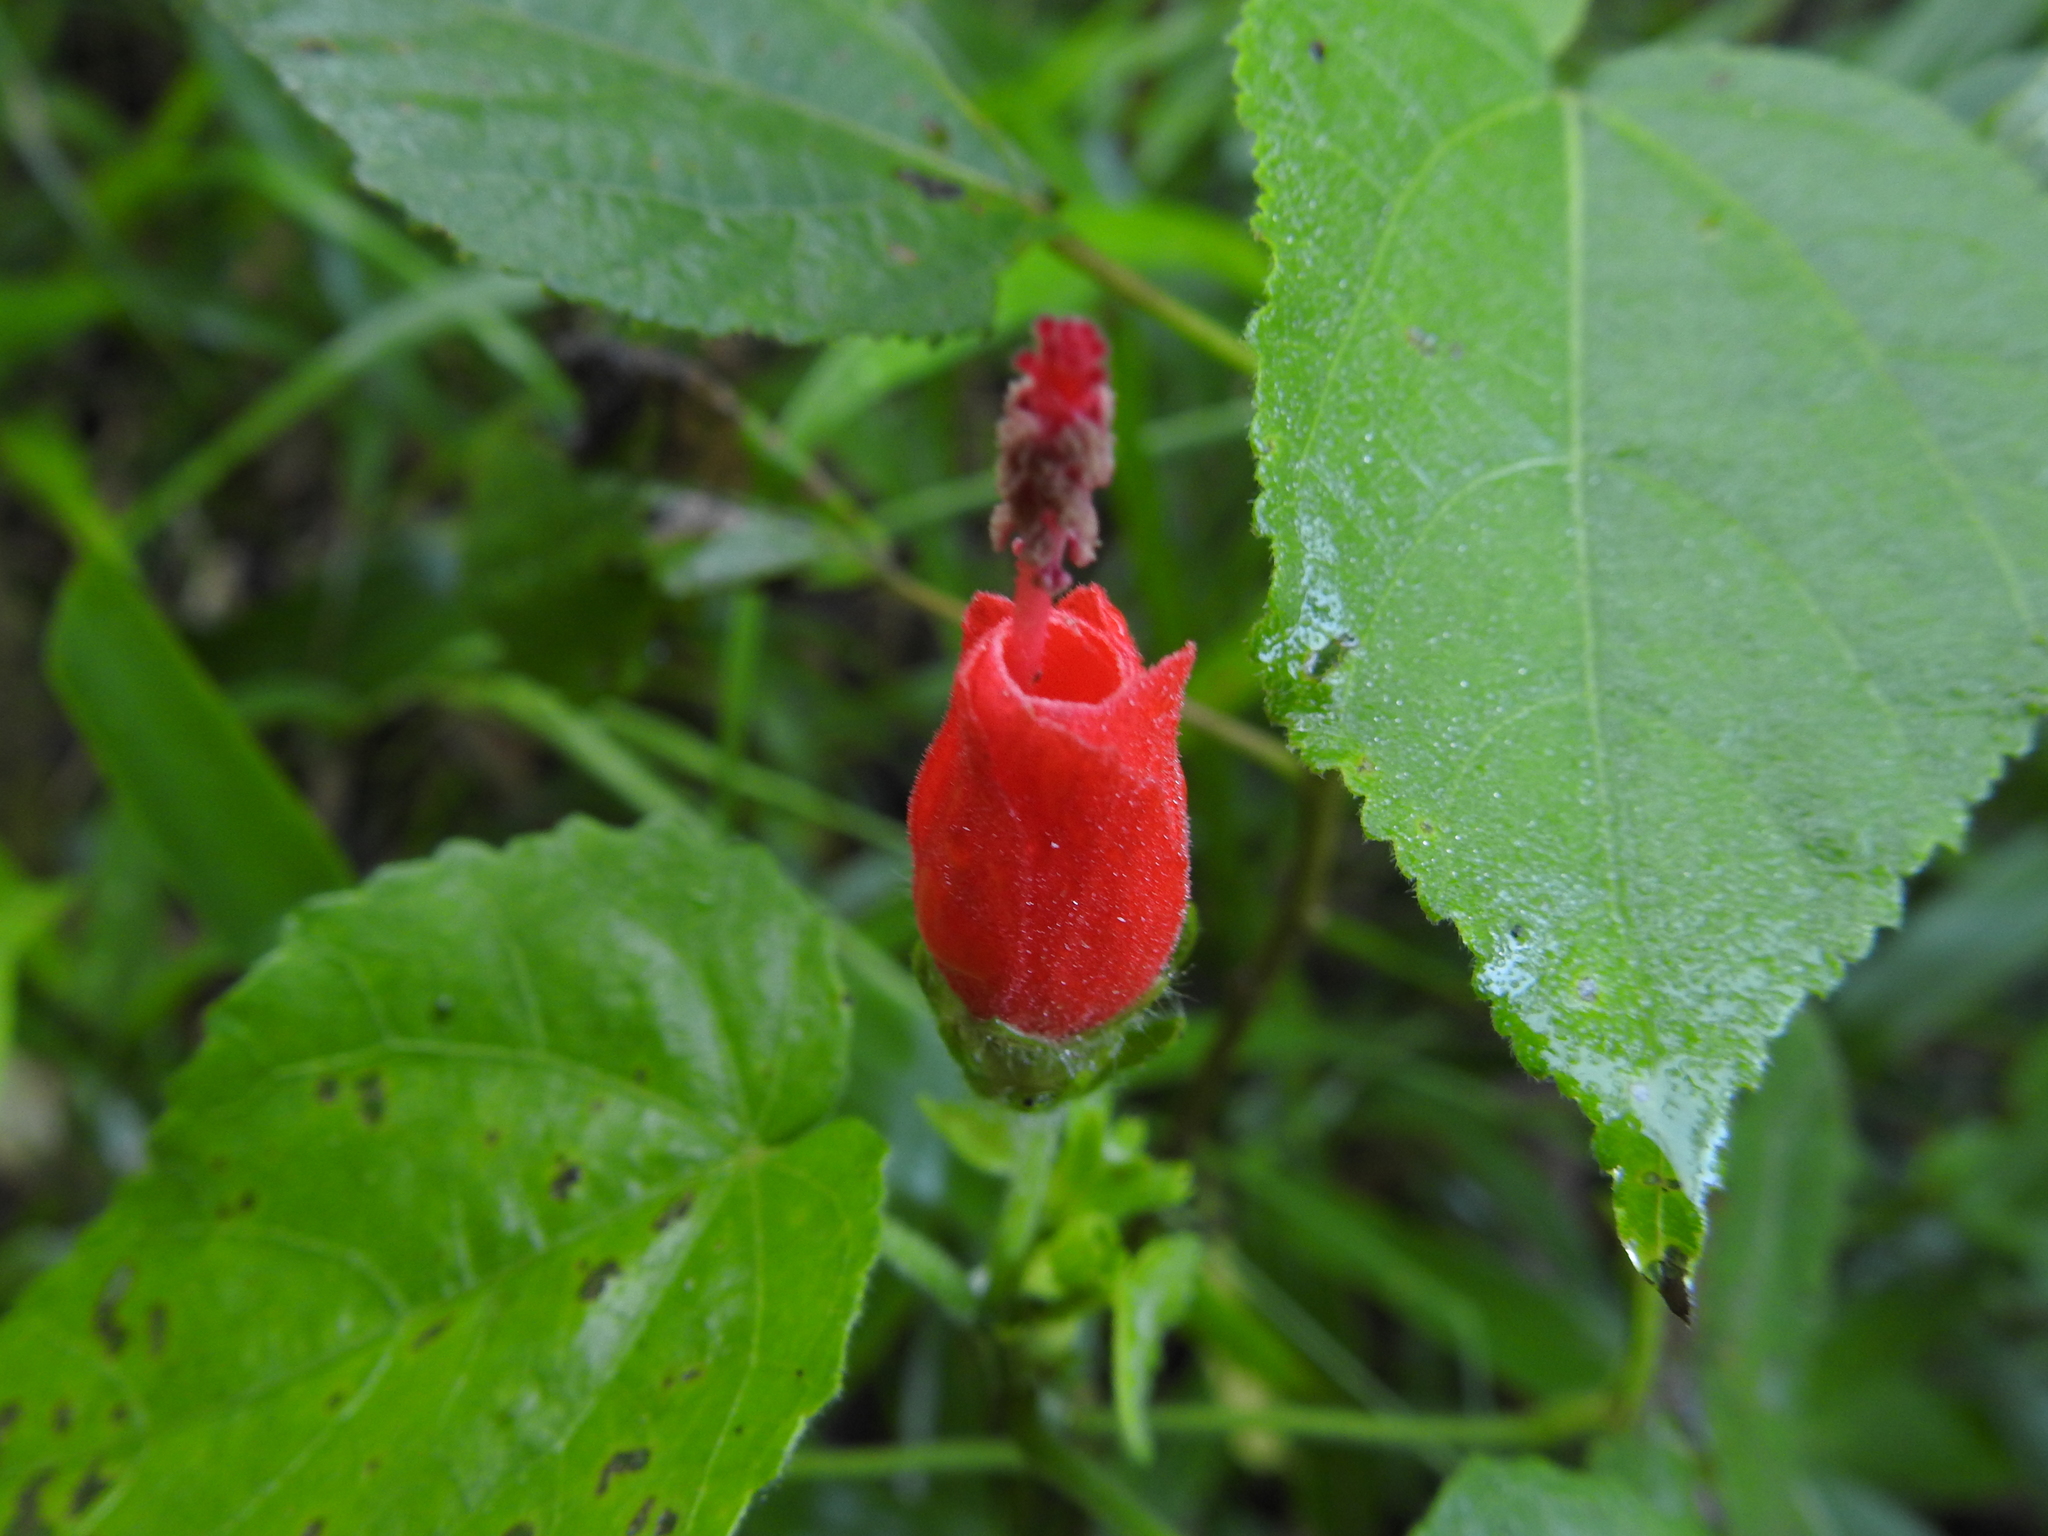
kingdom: Plantae
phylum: Tracheophyta
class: Magnoliopsida
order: Malvales
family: Malvaceae
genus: Malvaviscus
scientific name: Malvaviscus arboreus
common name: Wax mallow
